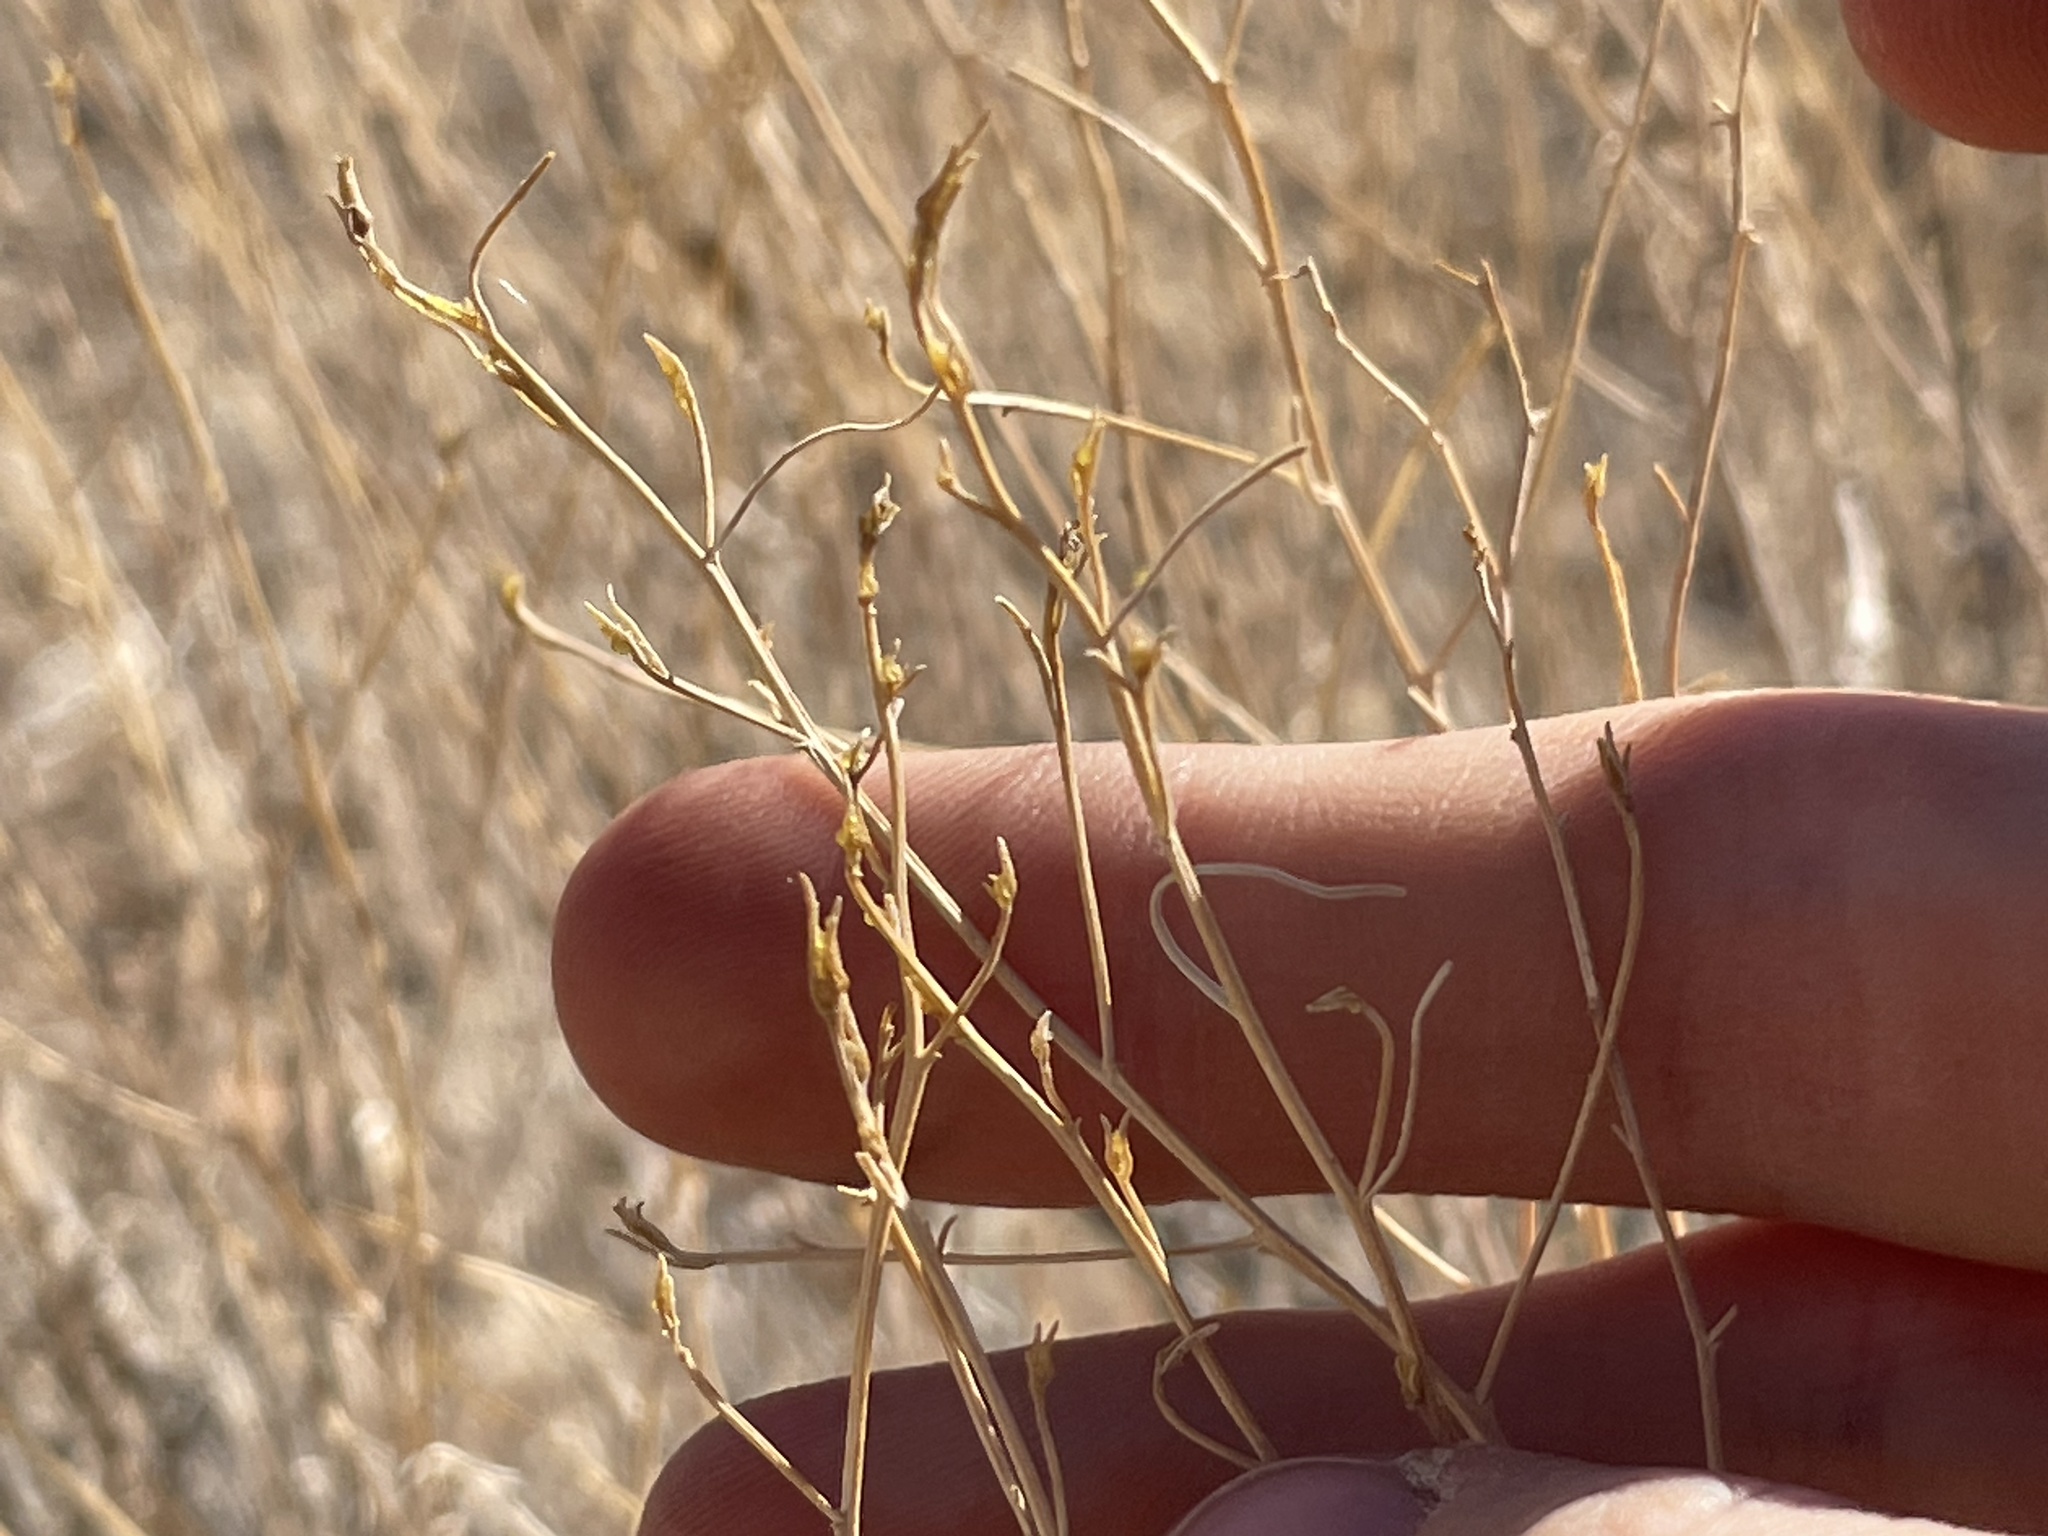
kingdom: Plantae
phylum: Tracheophyta
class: Magnoliopsida
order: Asterales
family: Asteraceae
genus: Psilostrophe
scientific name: Psilostrophe cooperi
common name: White-stem paper-flower
